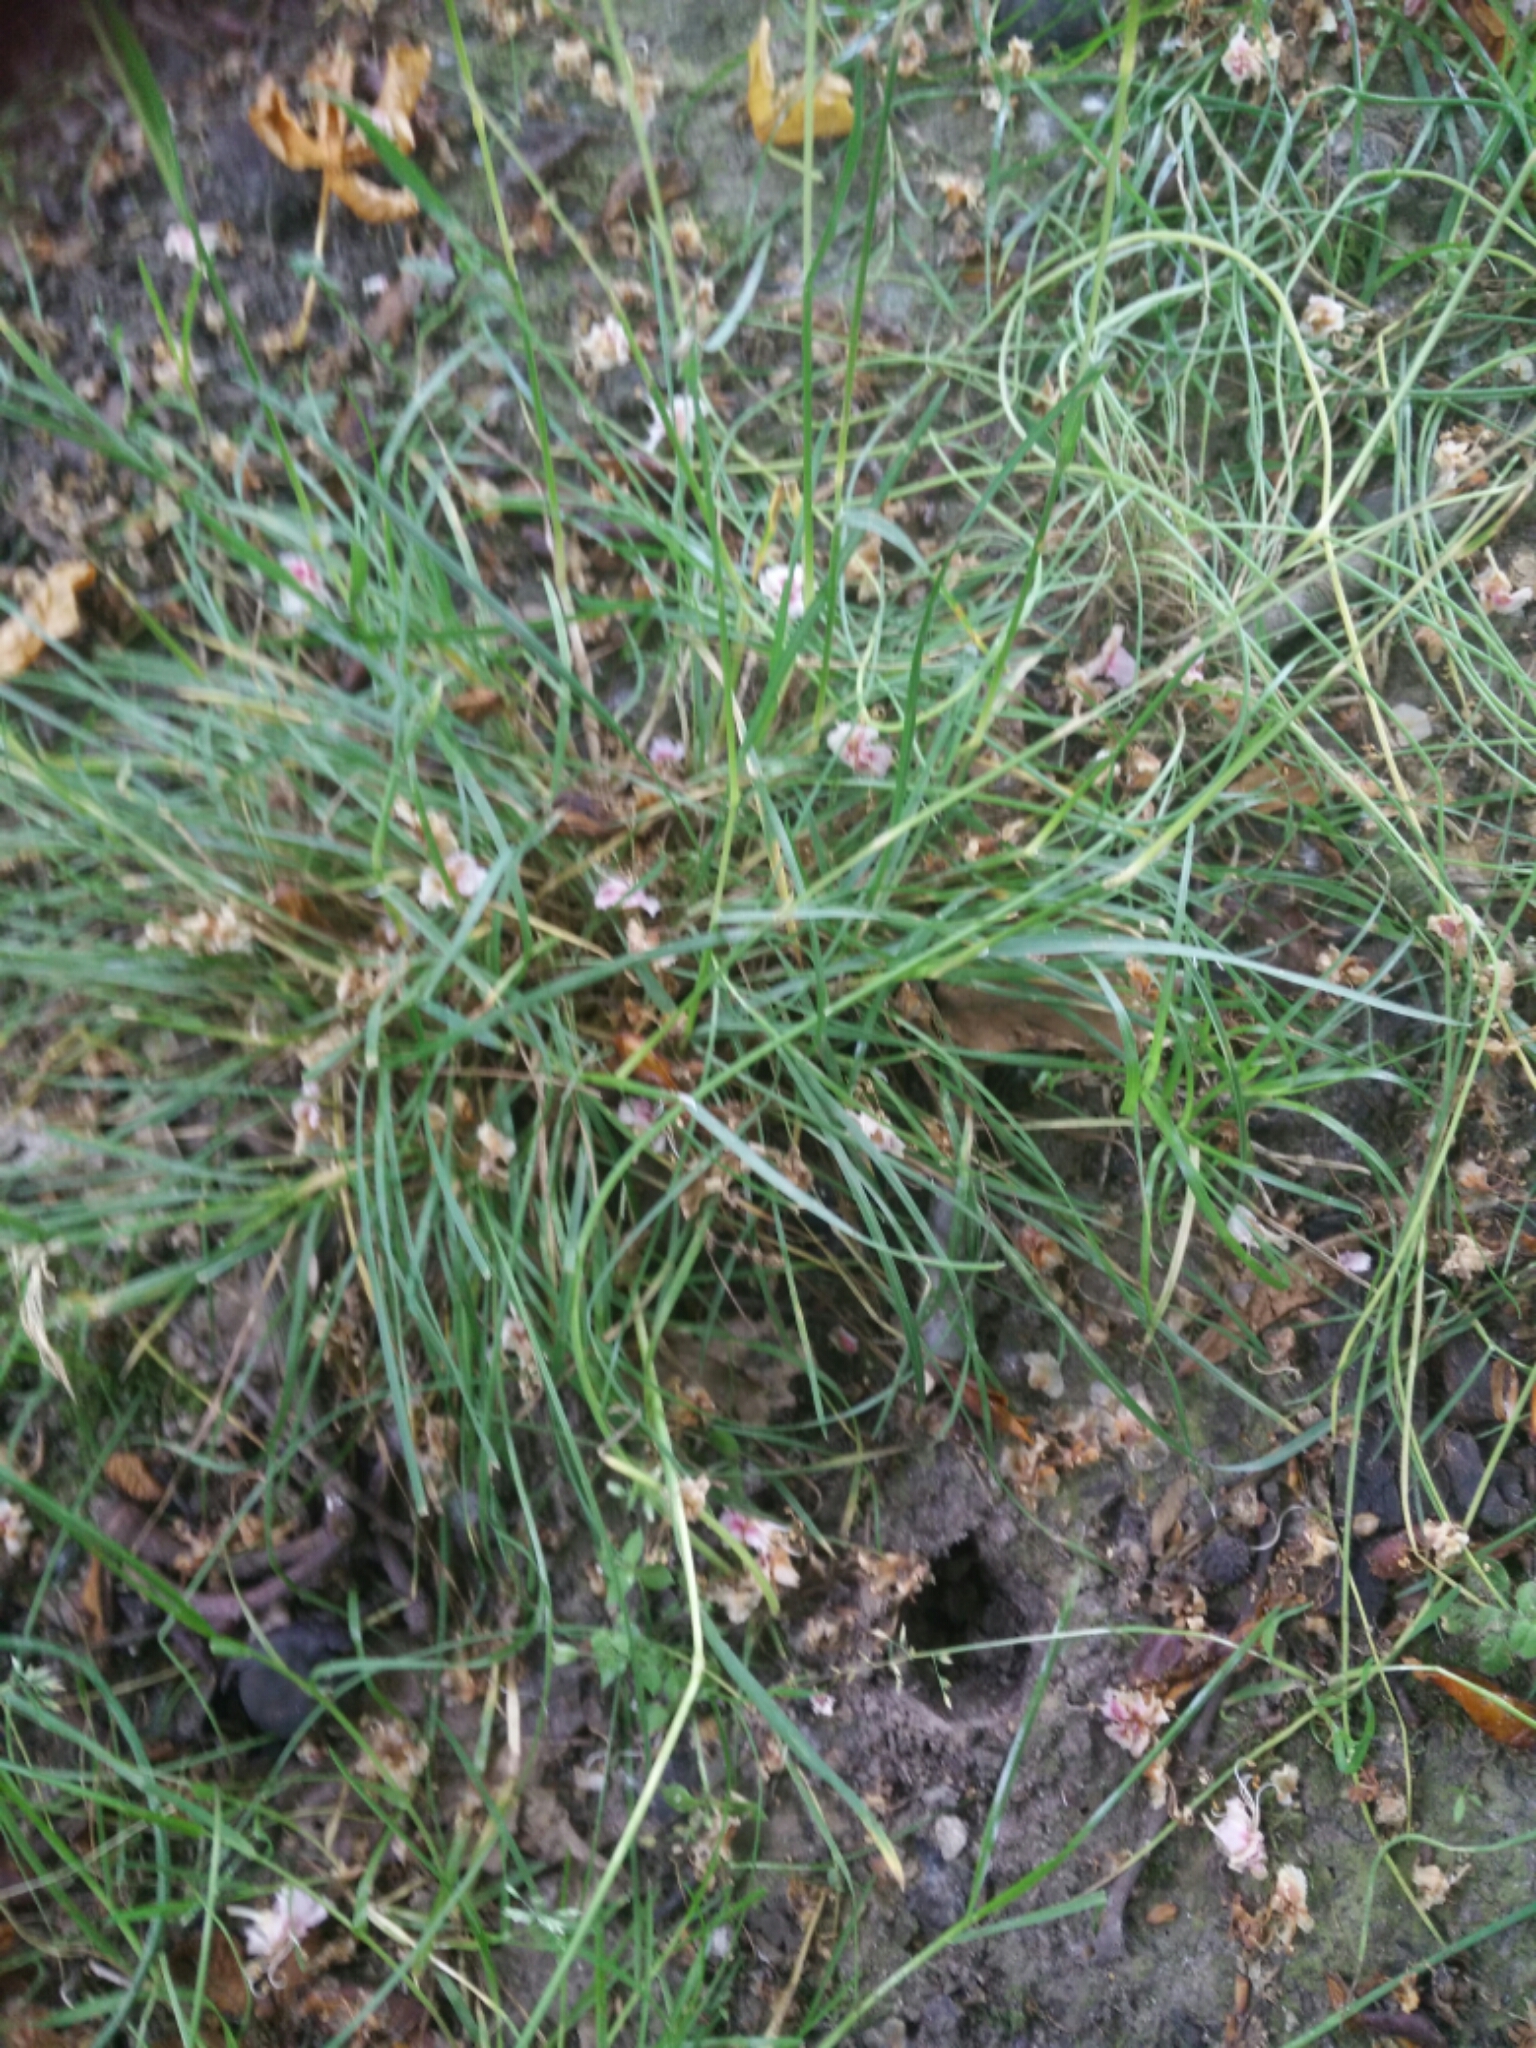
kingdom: Plantae
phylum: Tracheophyta
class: Liliopsida
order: Poales
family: Poaceae
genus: Poa
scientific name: Poa bulbosa
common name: Bulbous bluegrass
